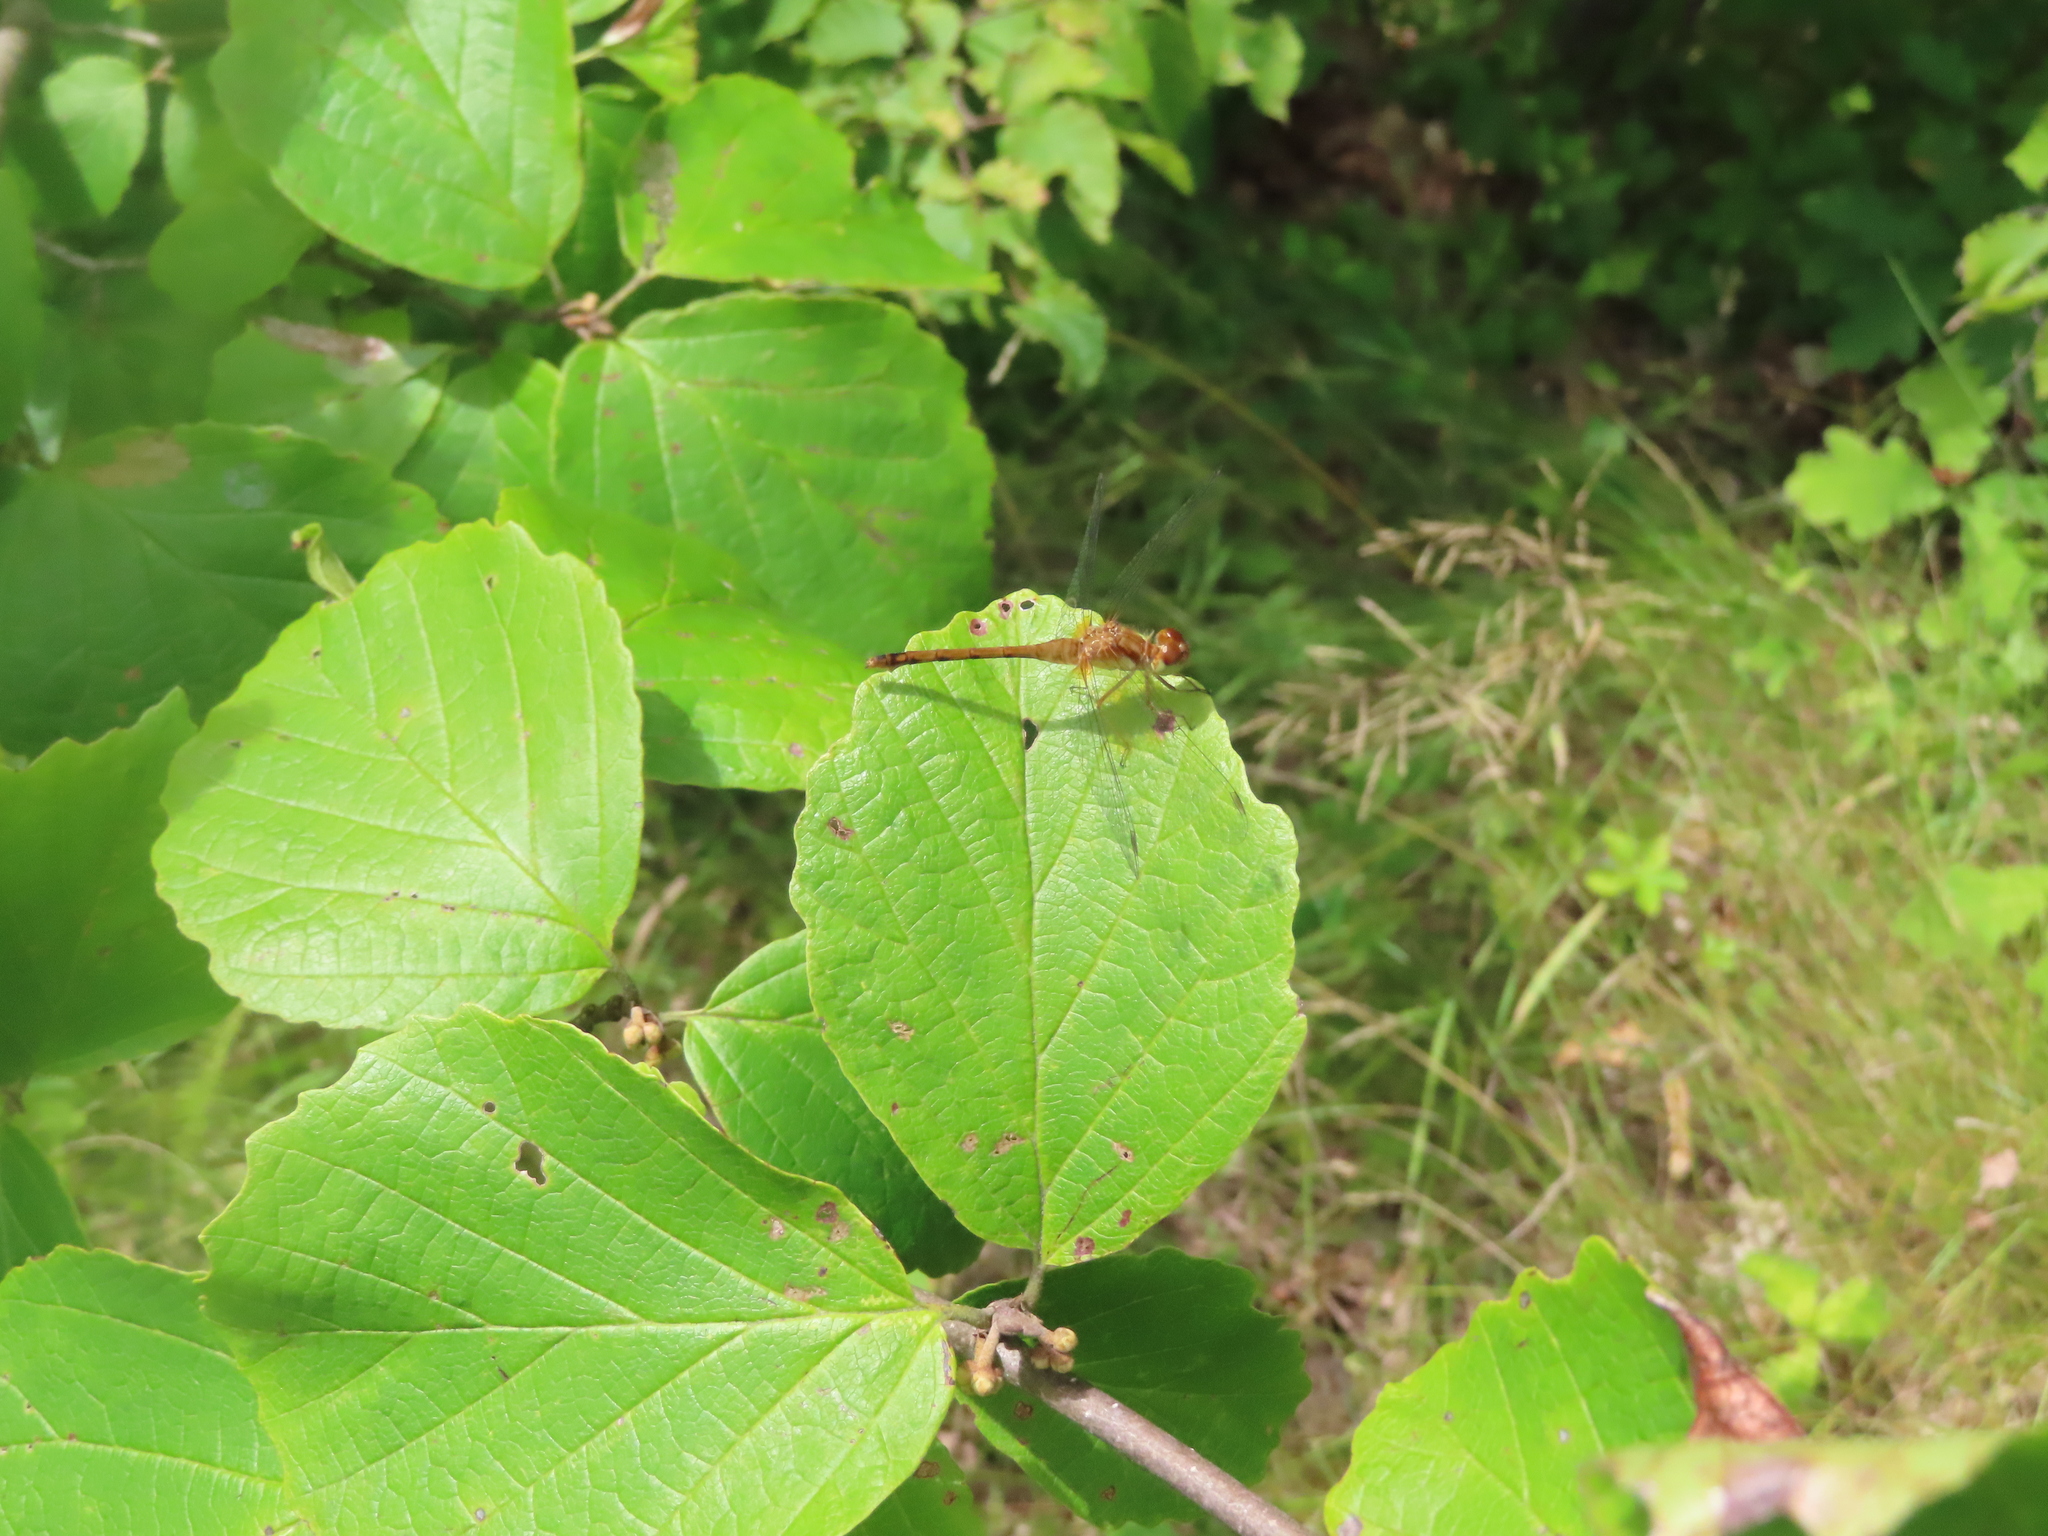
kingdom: Animalia
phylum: Arthropoda
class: Insecta
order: Odonata
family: Libellulidae
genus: Sympetrum
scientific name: Sympetrum vicinum
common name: Autumn meadowhawk
